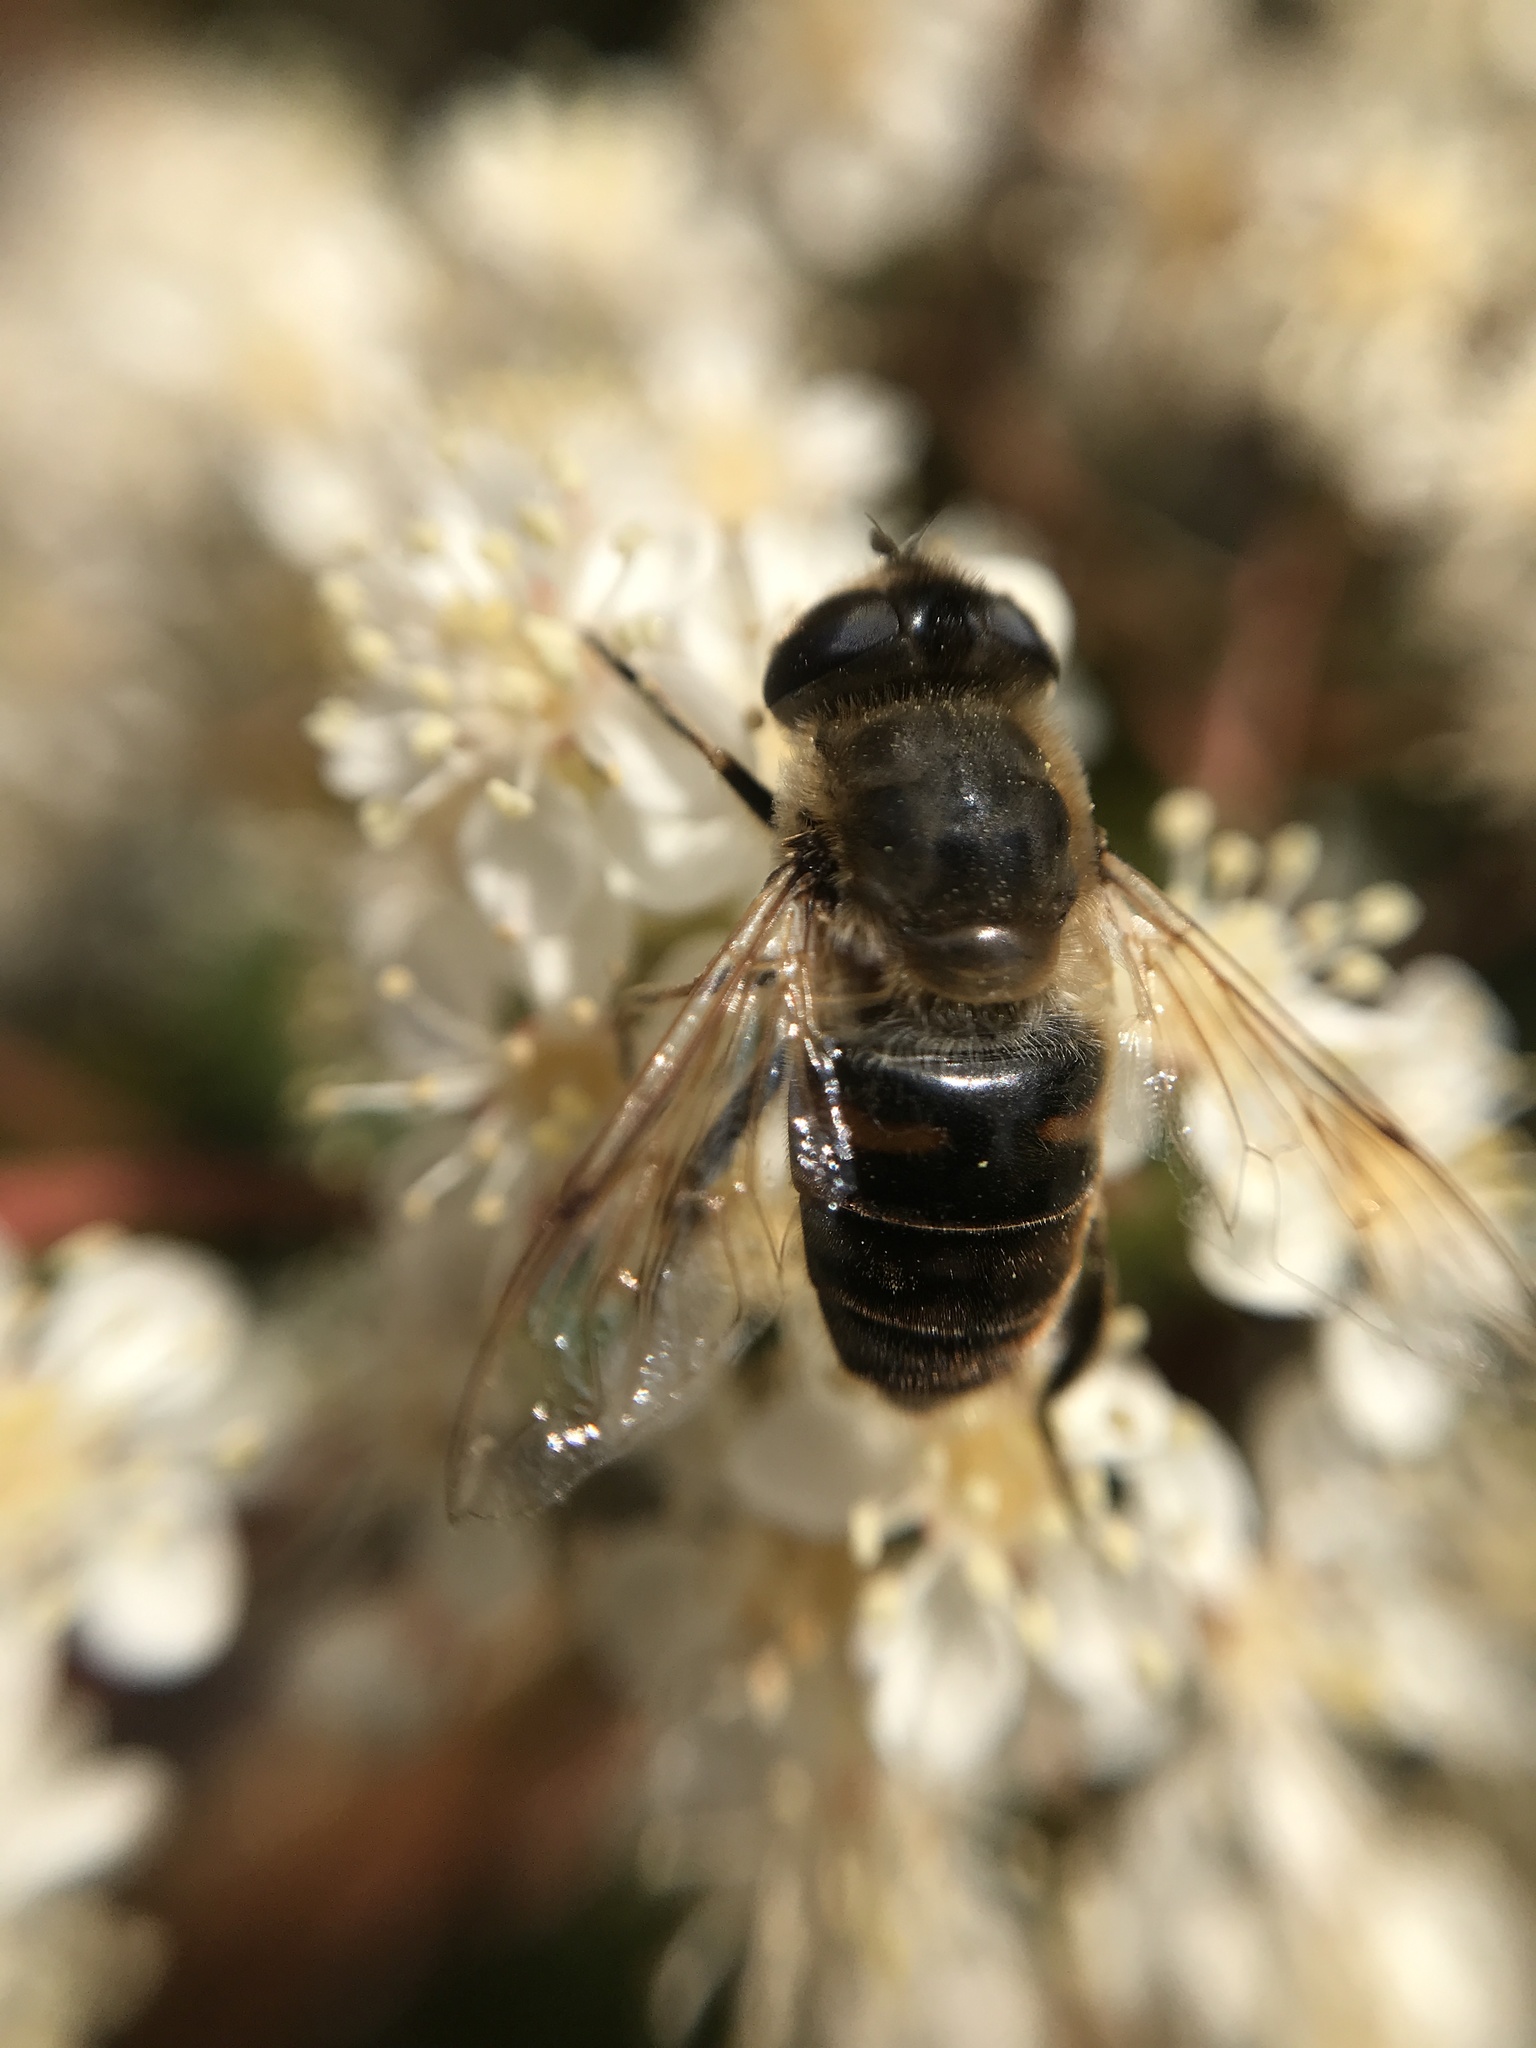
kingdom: Animalia
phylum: Arthropoda
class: Insecta
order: Diptera
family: Syrphidae
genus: Eristalis
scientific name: Eristalis tenax
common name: Drone fly
